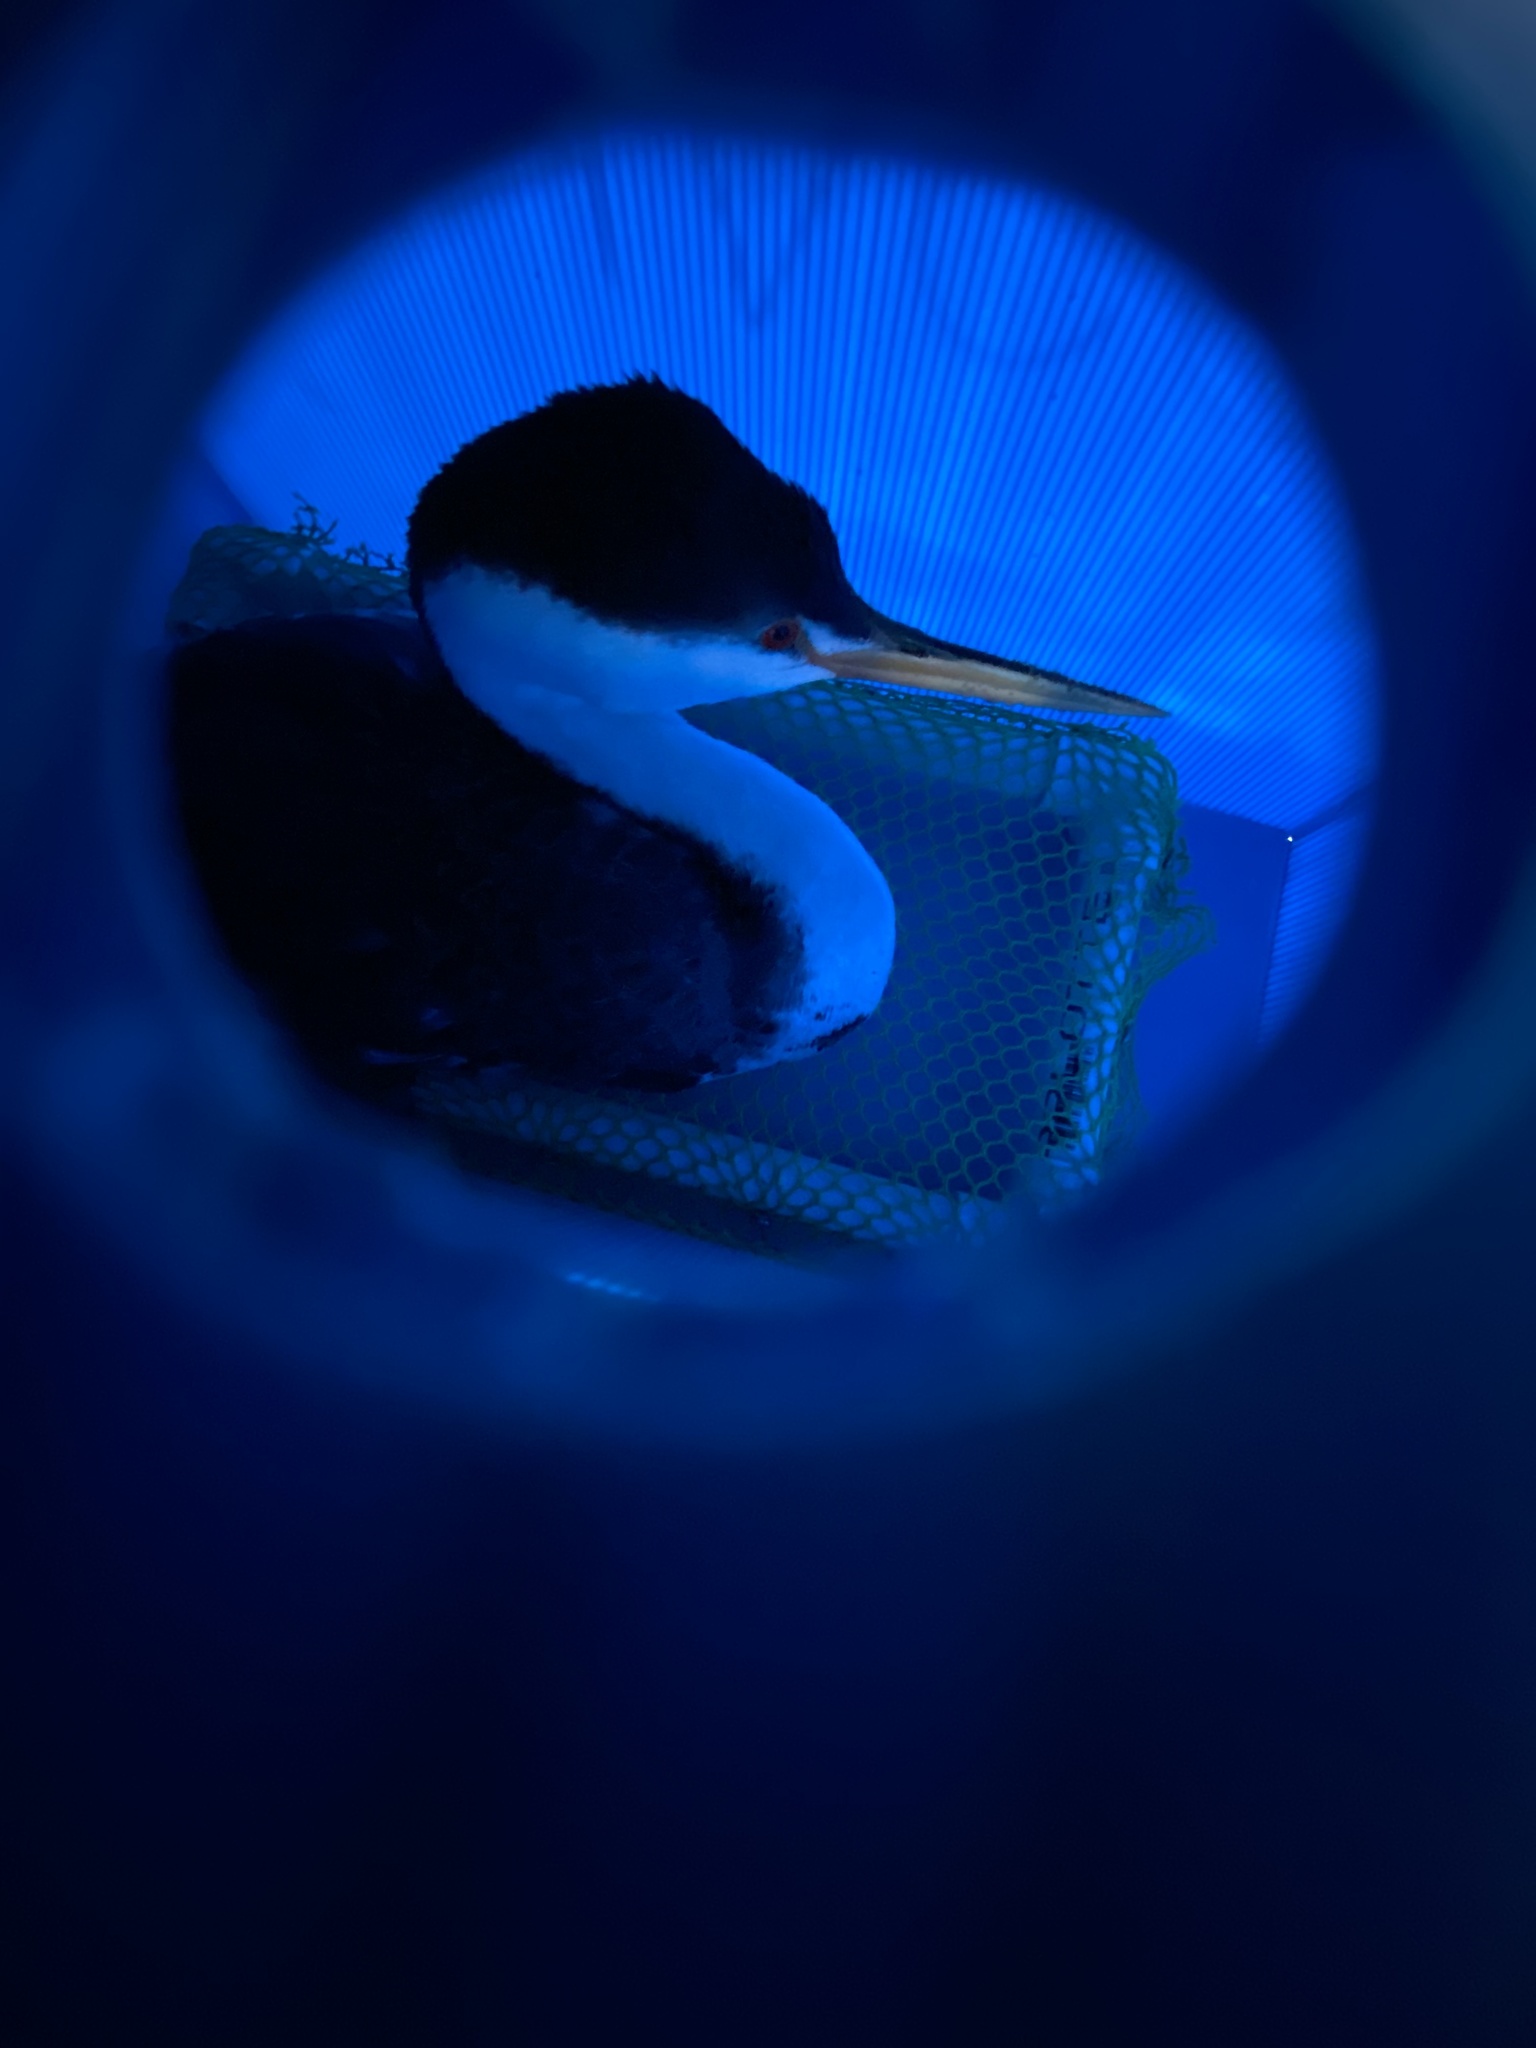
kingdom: Animalia
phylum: Chordata
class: Aves
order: Podicipediformes
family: Podicipedidae
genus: Aechmophorus
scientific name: Aechmophorus occidentalis
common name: Western grebe
